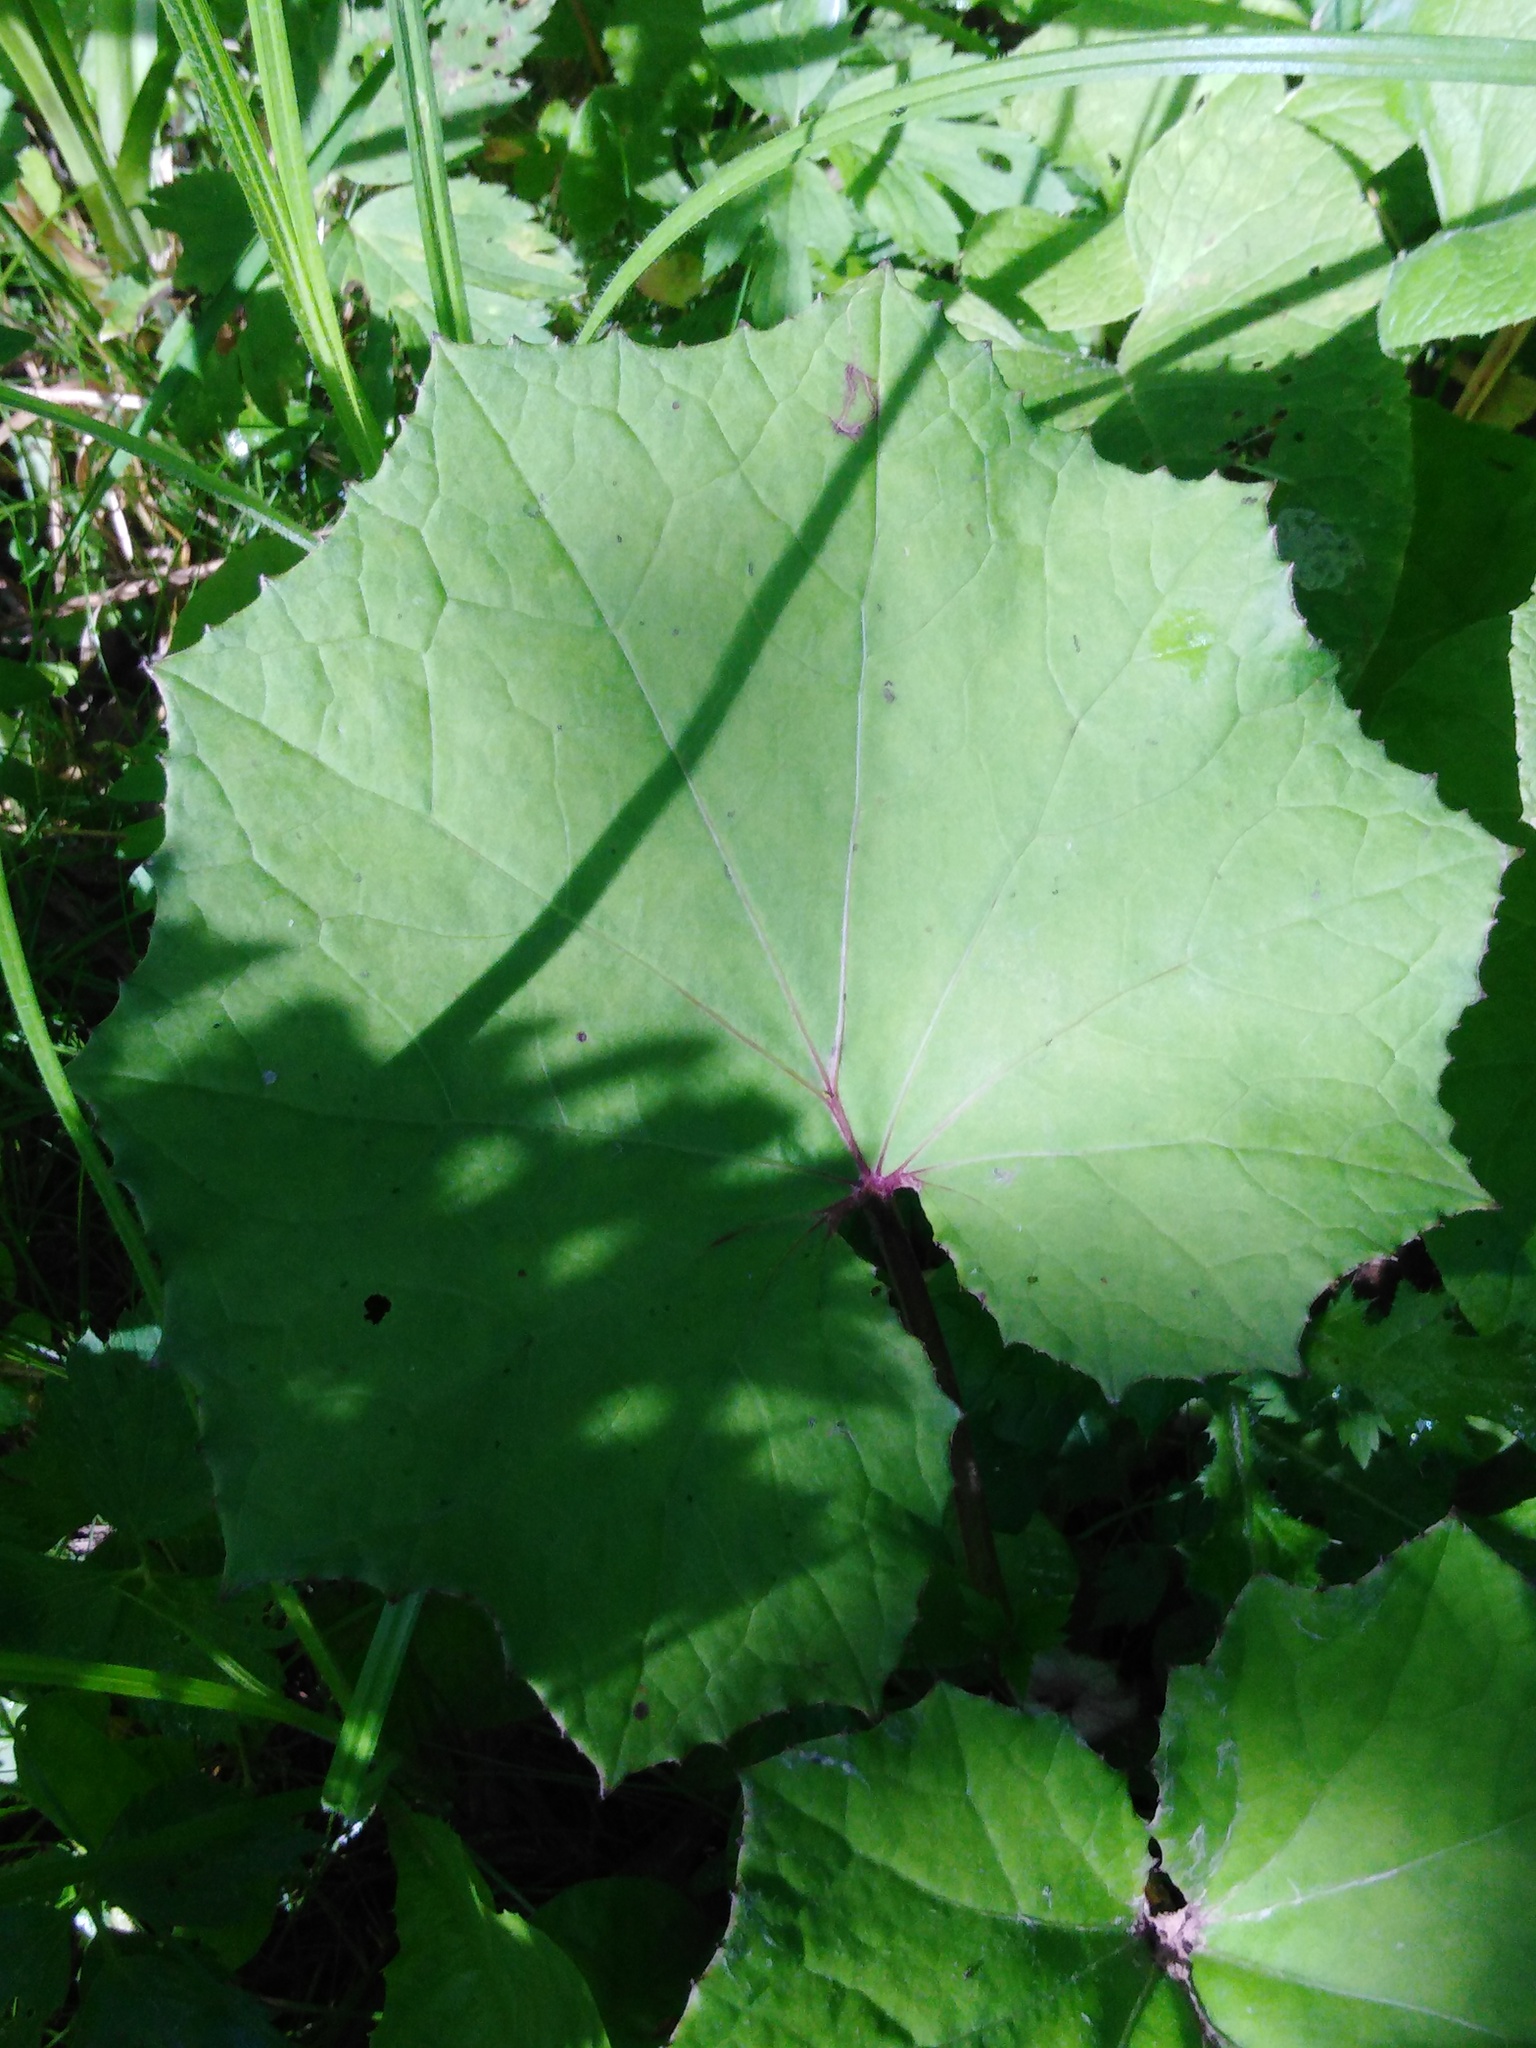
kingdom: Plantae
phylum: Tracheophyta
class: Magnoliopsida
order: Asterales
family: Asteraceae
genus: Tussilago
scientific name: Tussilago farfara
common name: Coltsfoot
